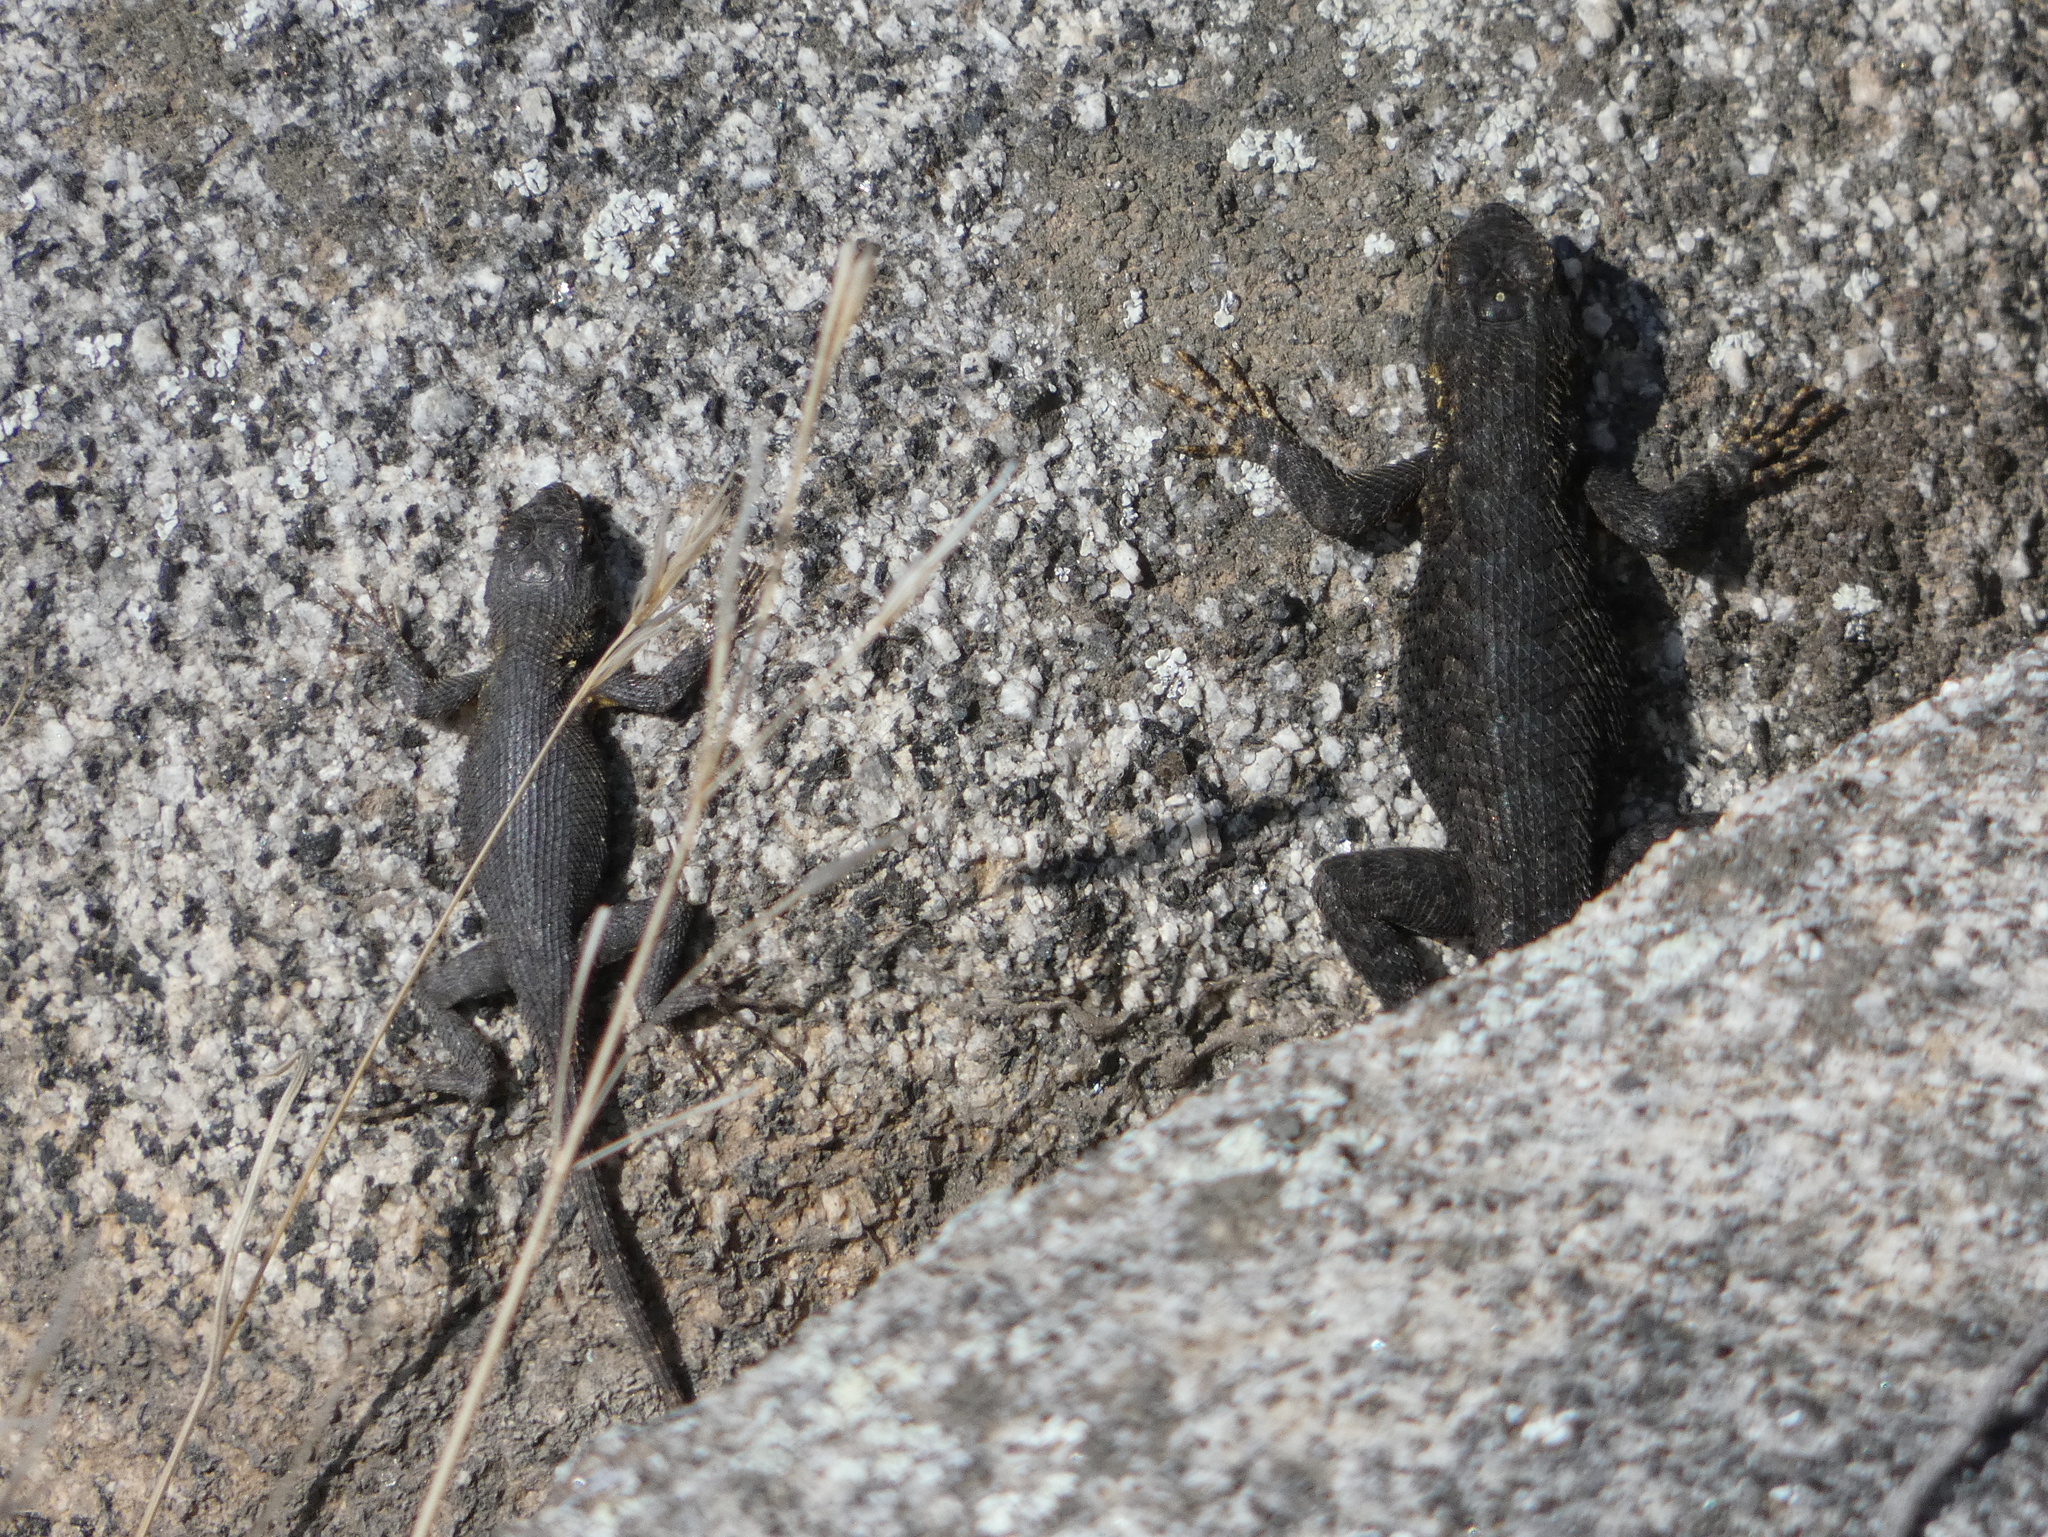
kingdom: Animalia
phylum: Chordata
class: Squamata
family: Phrynosomatidae
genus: Sceloporus
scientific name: Sceloporus occidentalis
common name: Western fence lizard
